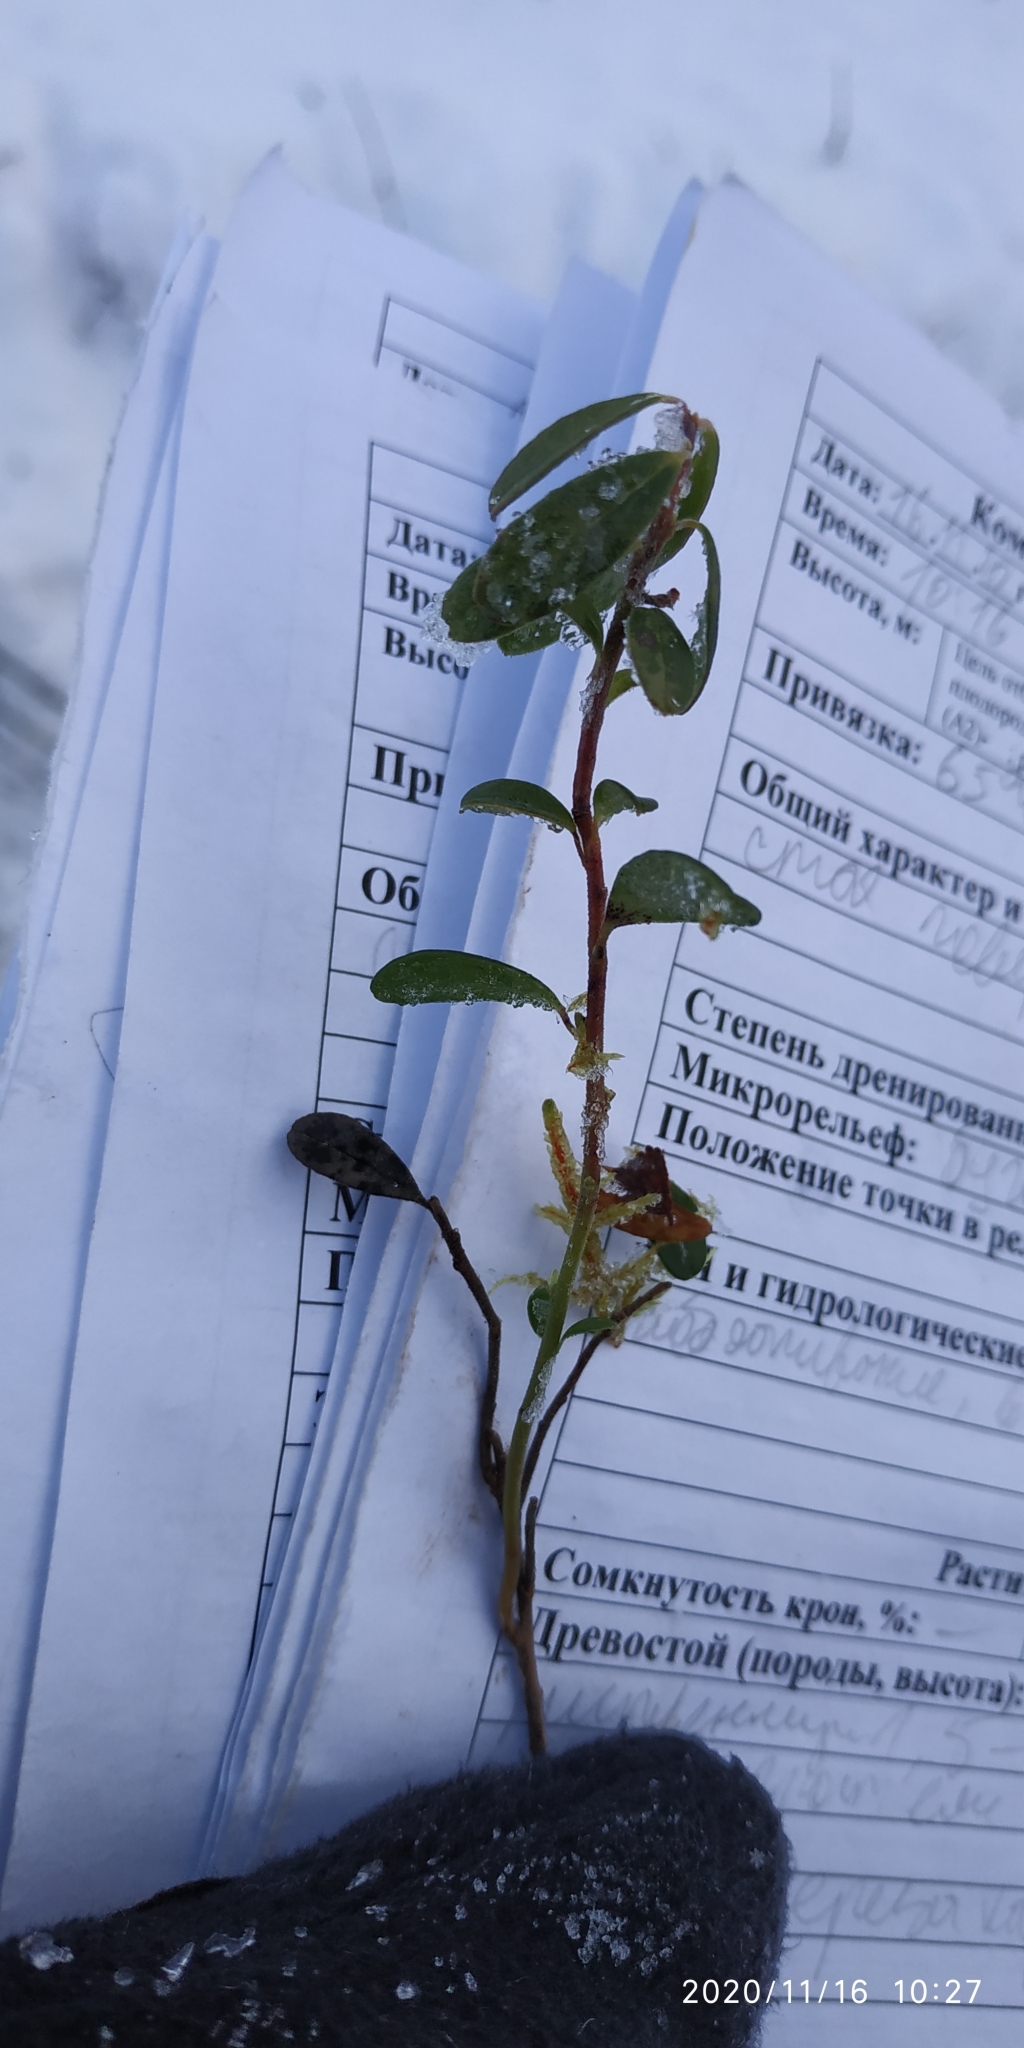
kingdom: Plantae
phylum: Tracheophyta
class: Magnoliopsida
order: Ericales
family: Ericaceae
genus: Vaccinium
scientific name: Vaccinium vitis-idaea
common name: Cowberry
